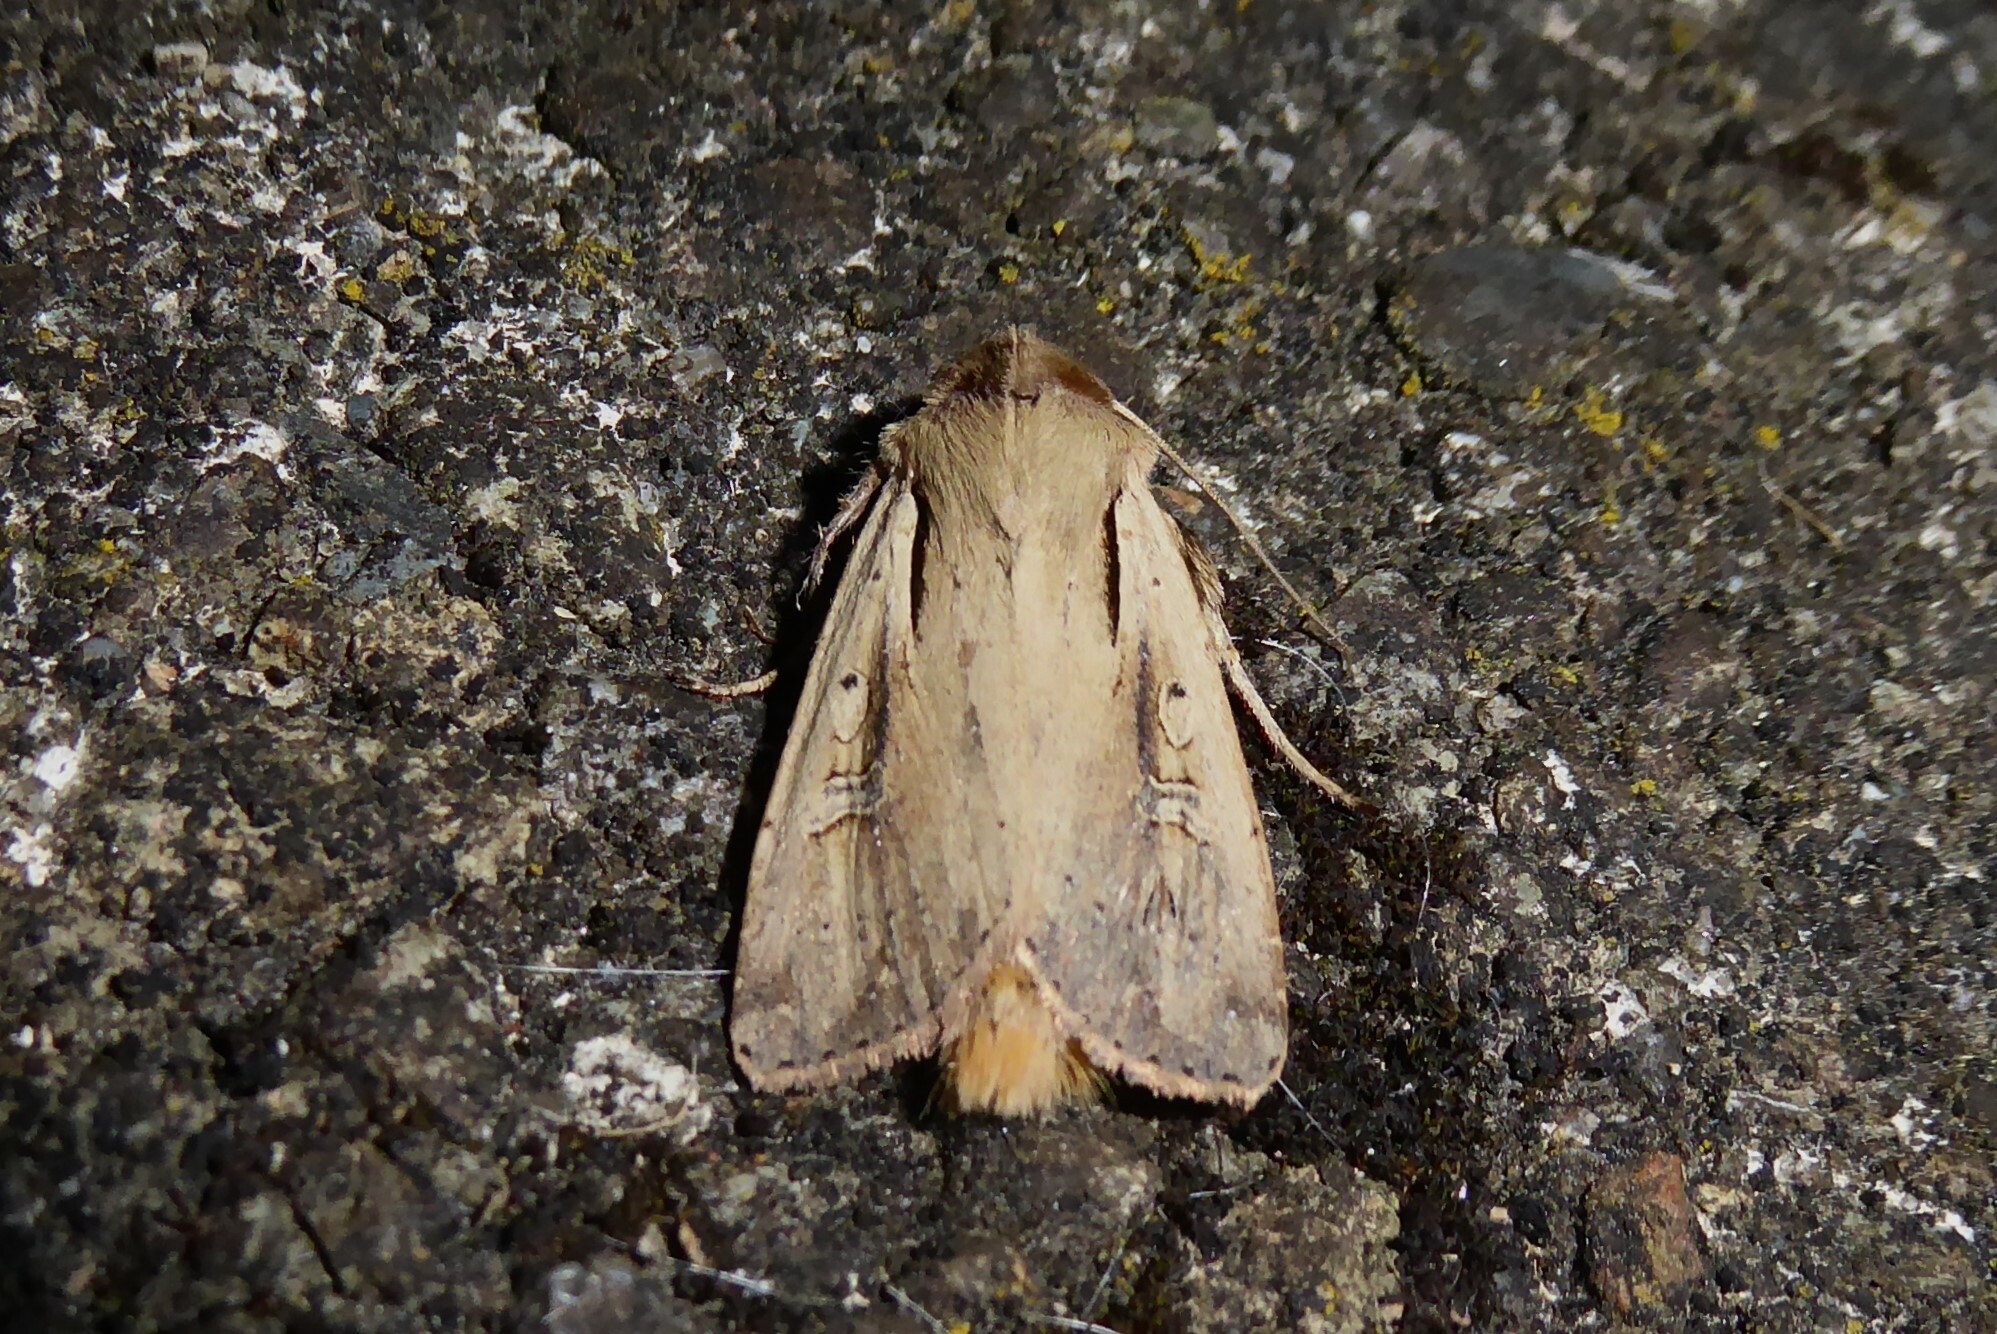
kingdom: Animalia
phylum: Arthropoda
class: Insecta
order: Lepidoptera
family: Noctuidae
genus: Ichneutica
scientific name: Ichneutica atristriga
